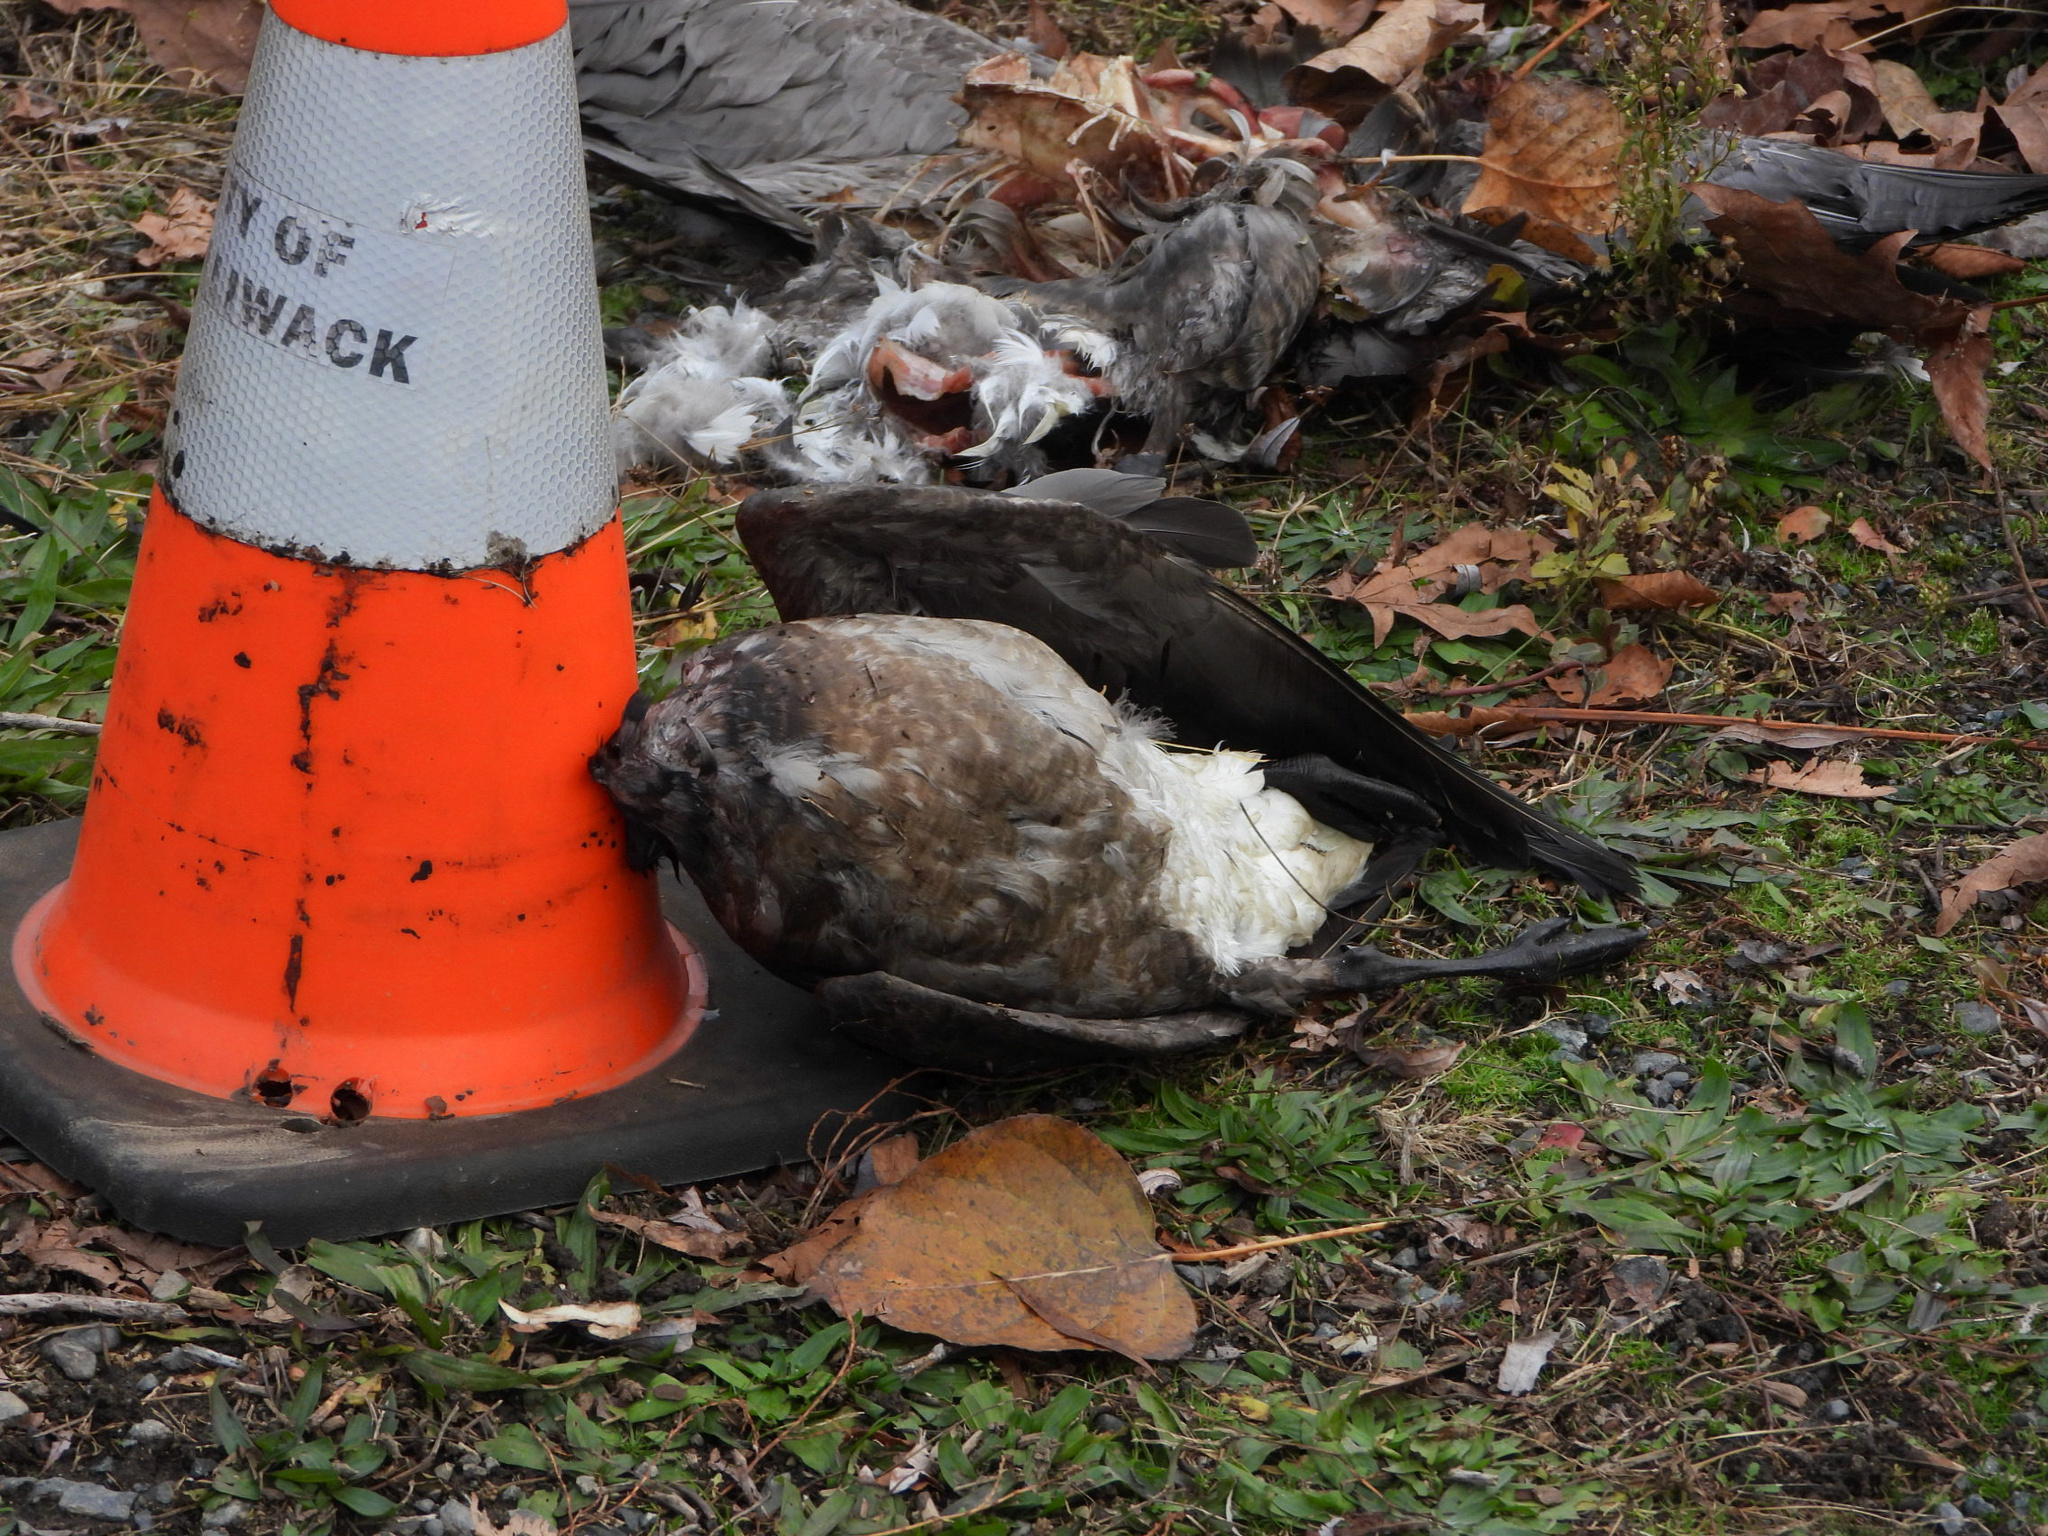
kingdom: Animalia
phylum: Chordata
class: Aves
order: Anseriformes
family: Anatidae
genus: Branta
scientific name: Branta hutchinsii
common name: Cackling goose
